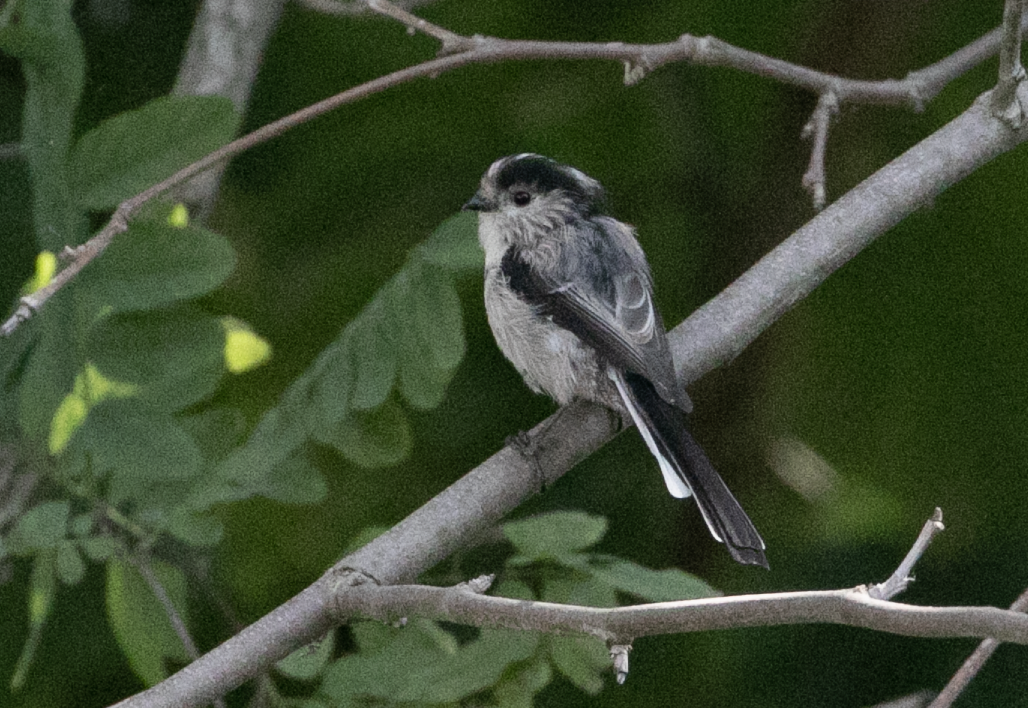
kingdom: Animalia
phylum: Chordata
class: Aves
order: Passeriformes
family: Aegithalidae
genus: Aegithalos
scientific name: Aegithalos caudatus
